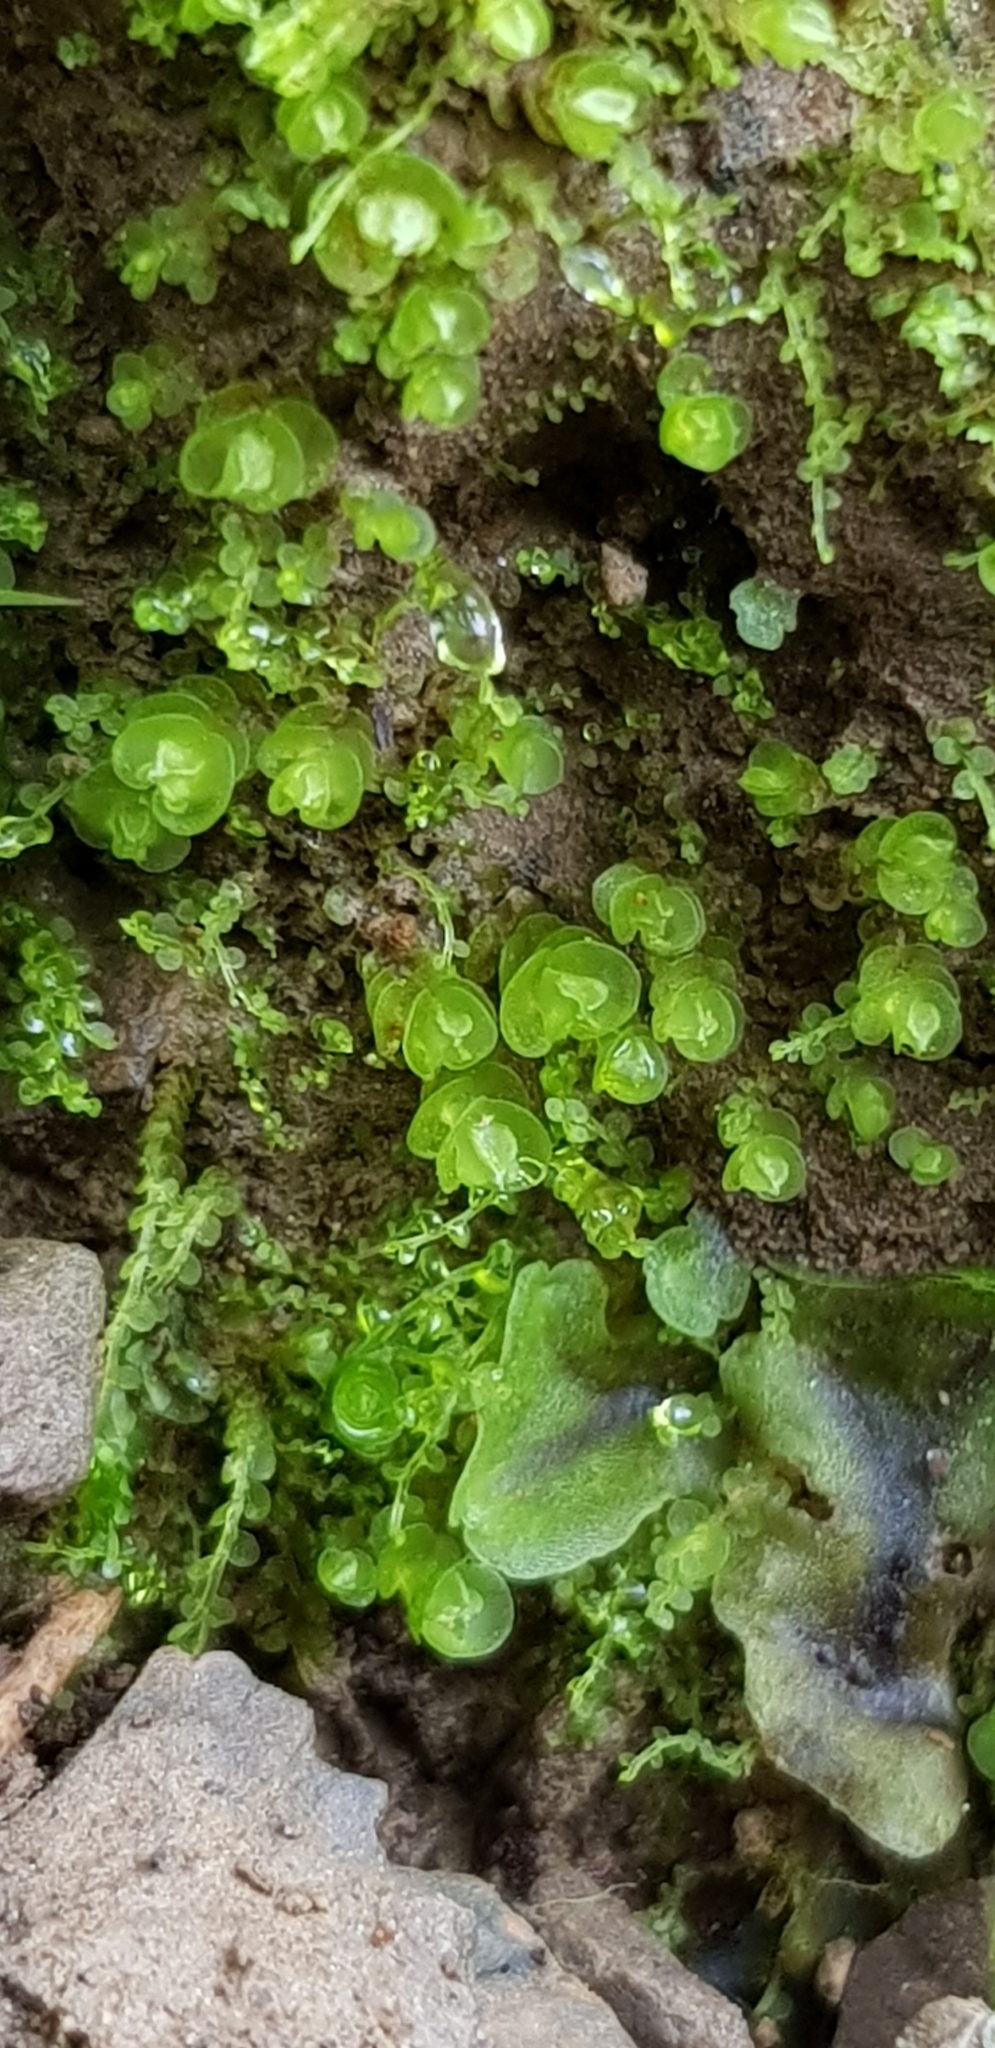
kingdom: Plantae
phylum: Marchantiophyta
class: Jungermanniopsida
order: Jungermanniales
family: Solenostomataceae
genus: Solenostoma
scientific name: Solenostoma gracillimum
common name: Crenulated flapwort
